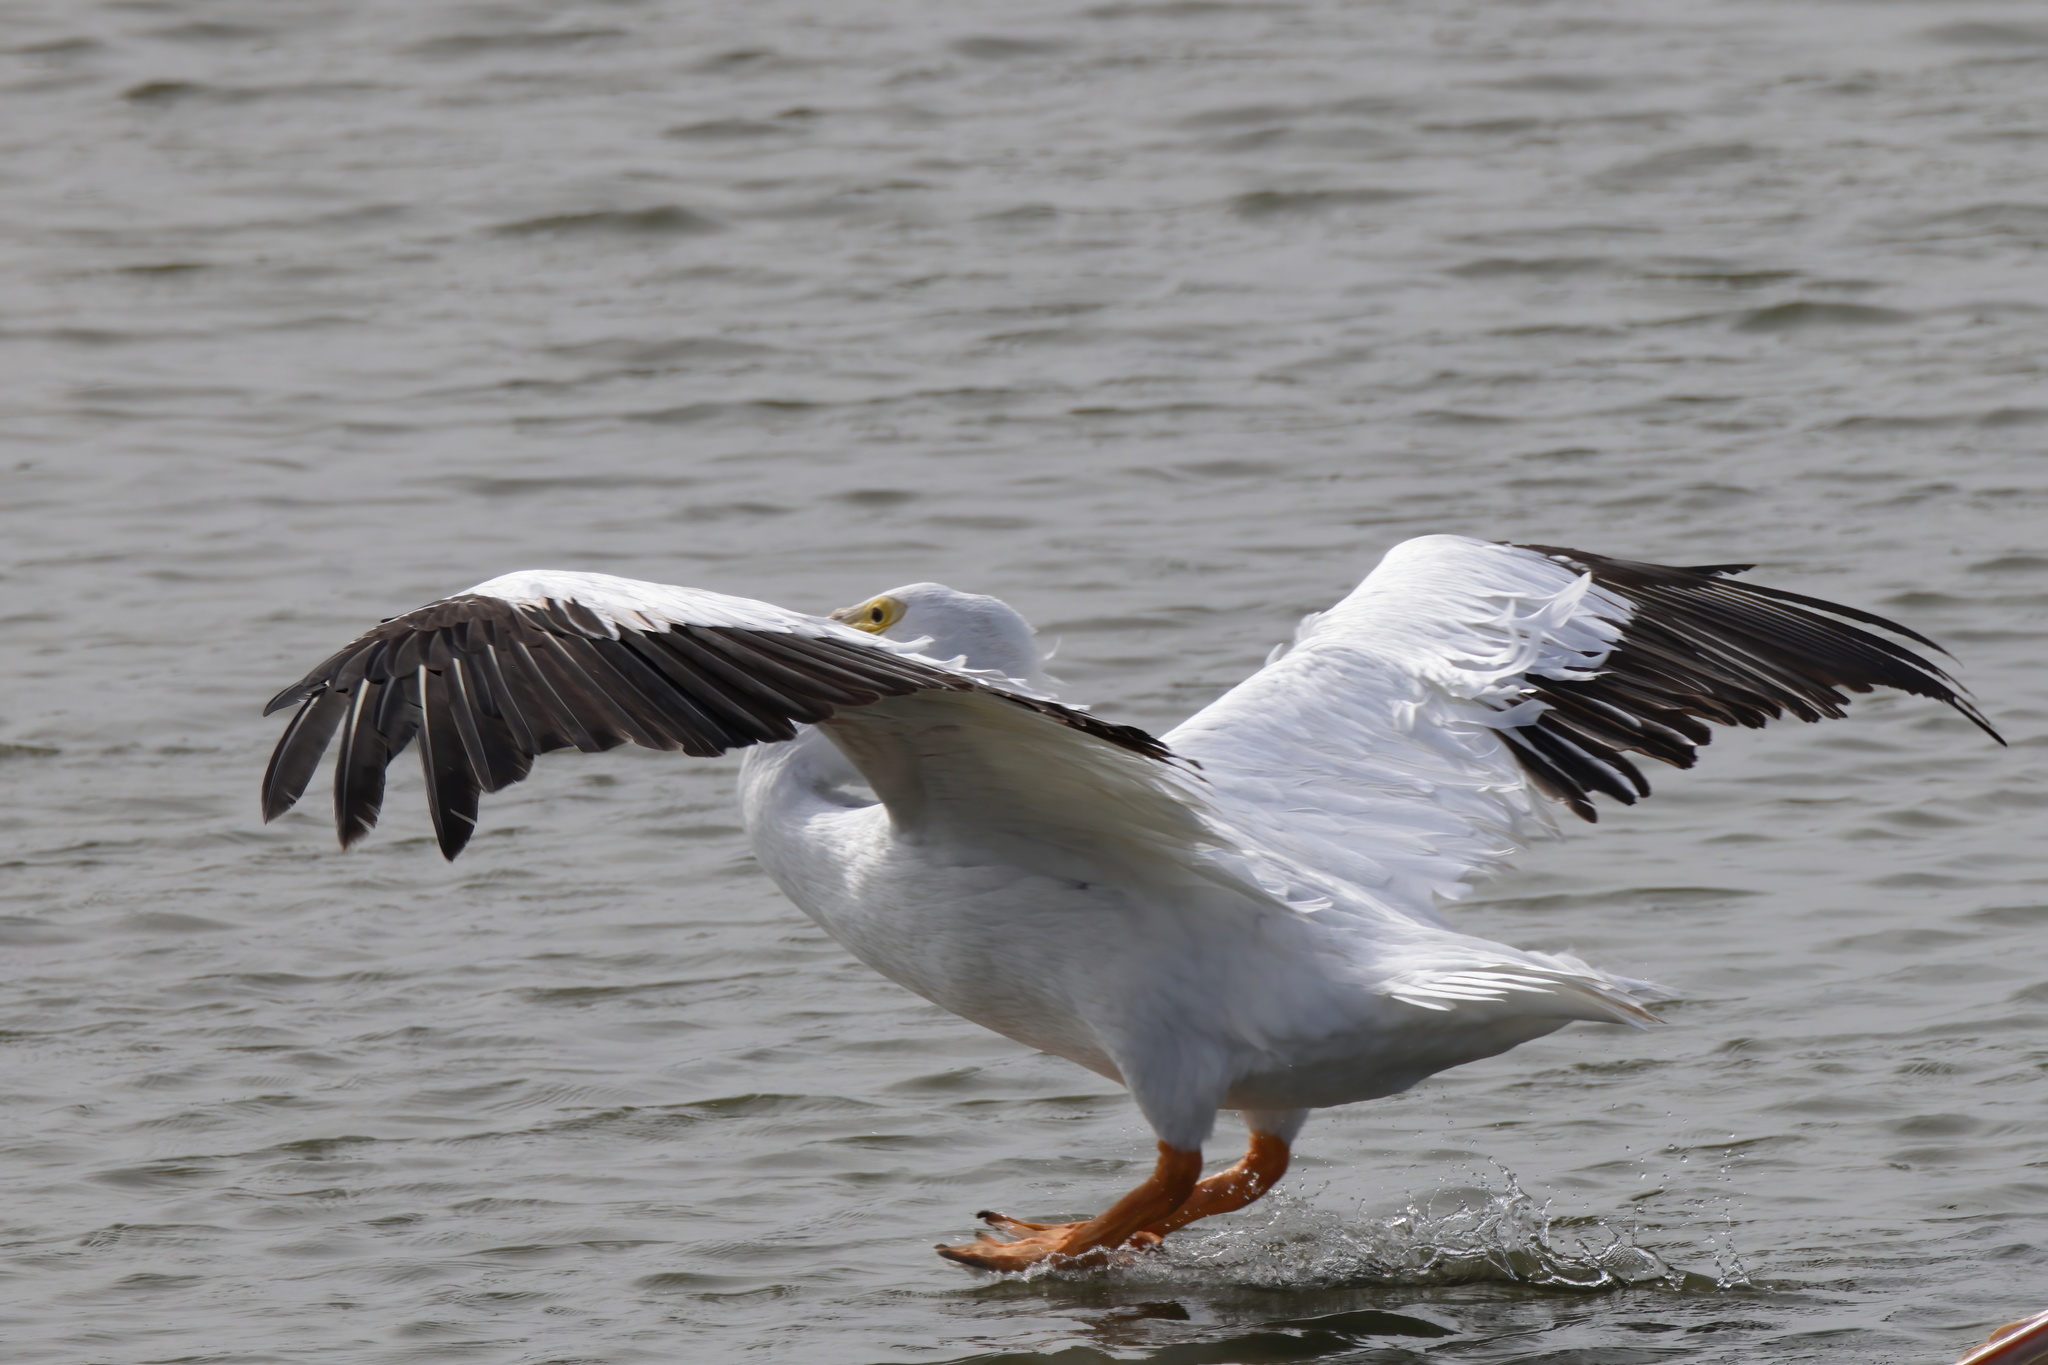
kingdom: Animalia
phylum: Chordata
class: Aves
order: Pelecaniformes
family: Pelecanidae
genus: Pelecanus
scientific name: Pelecanus erythrorhynchos
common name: American white pelican
